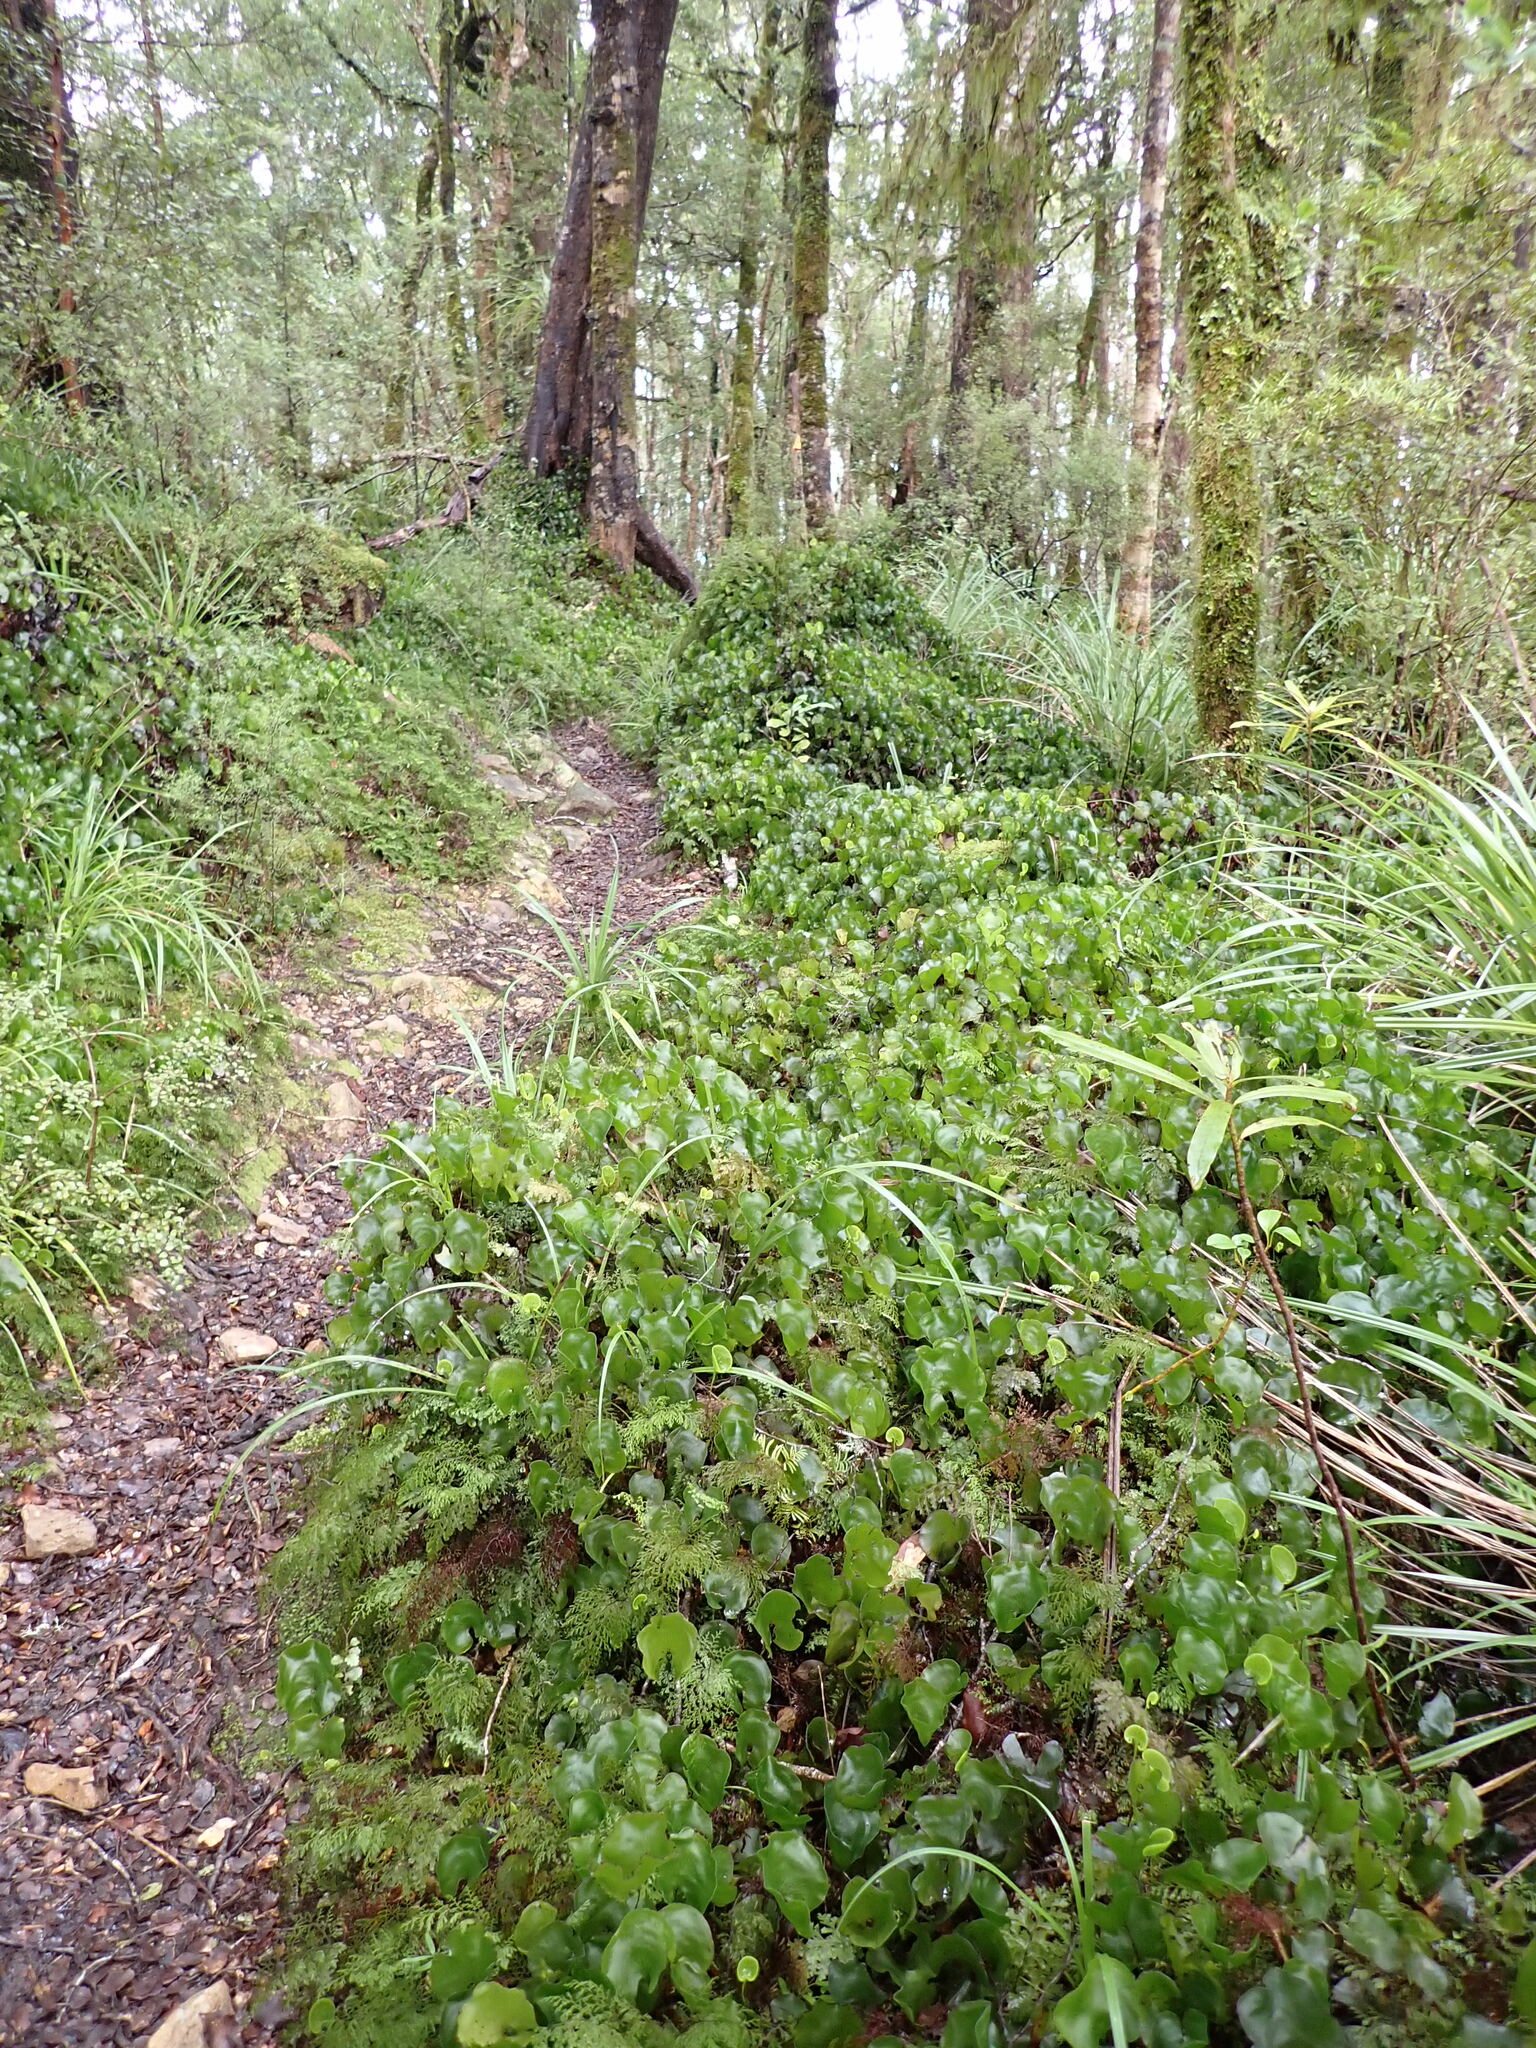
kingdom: Plantae
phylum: Tracheophyta
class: Polypodiopsida
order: Hymenophyllales
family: Hymenophyllaceae
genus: Hymenophyllum
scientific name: Hymenophyllum nephrophyllum
